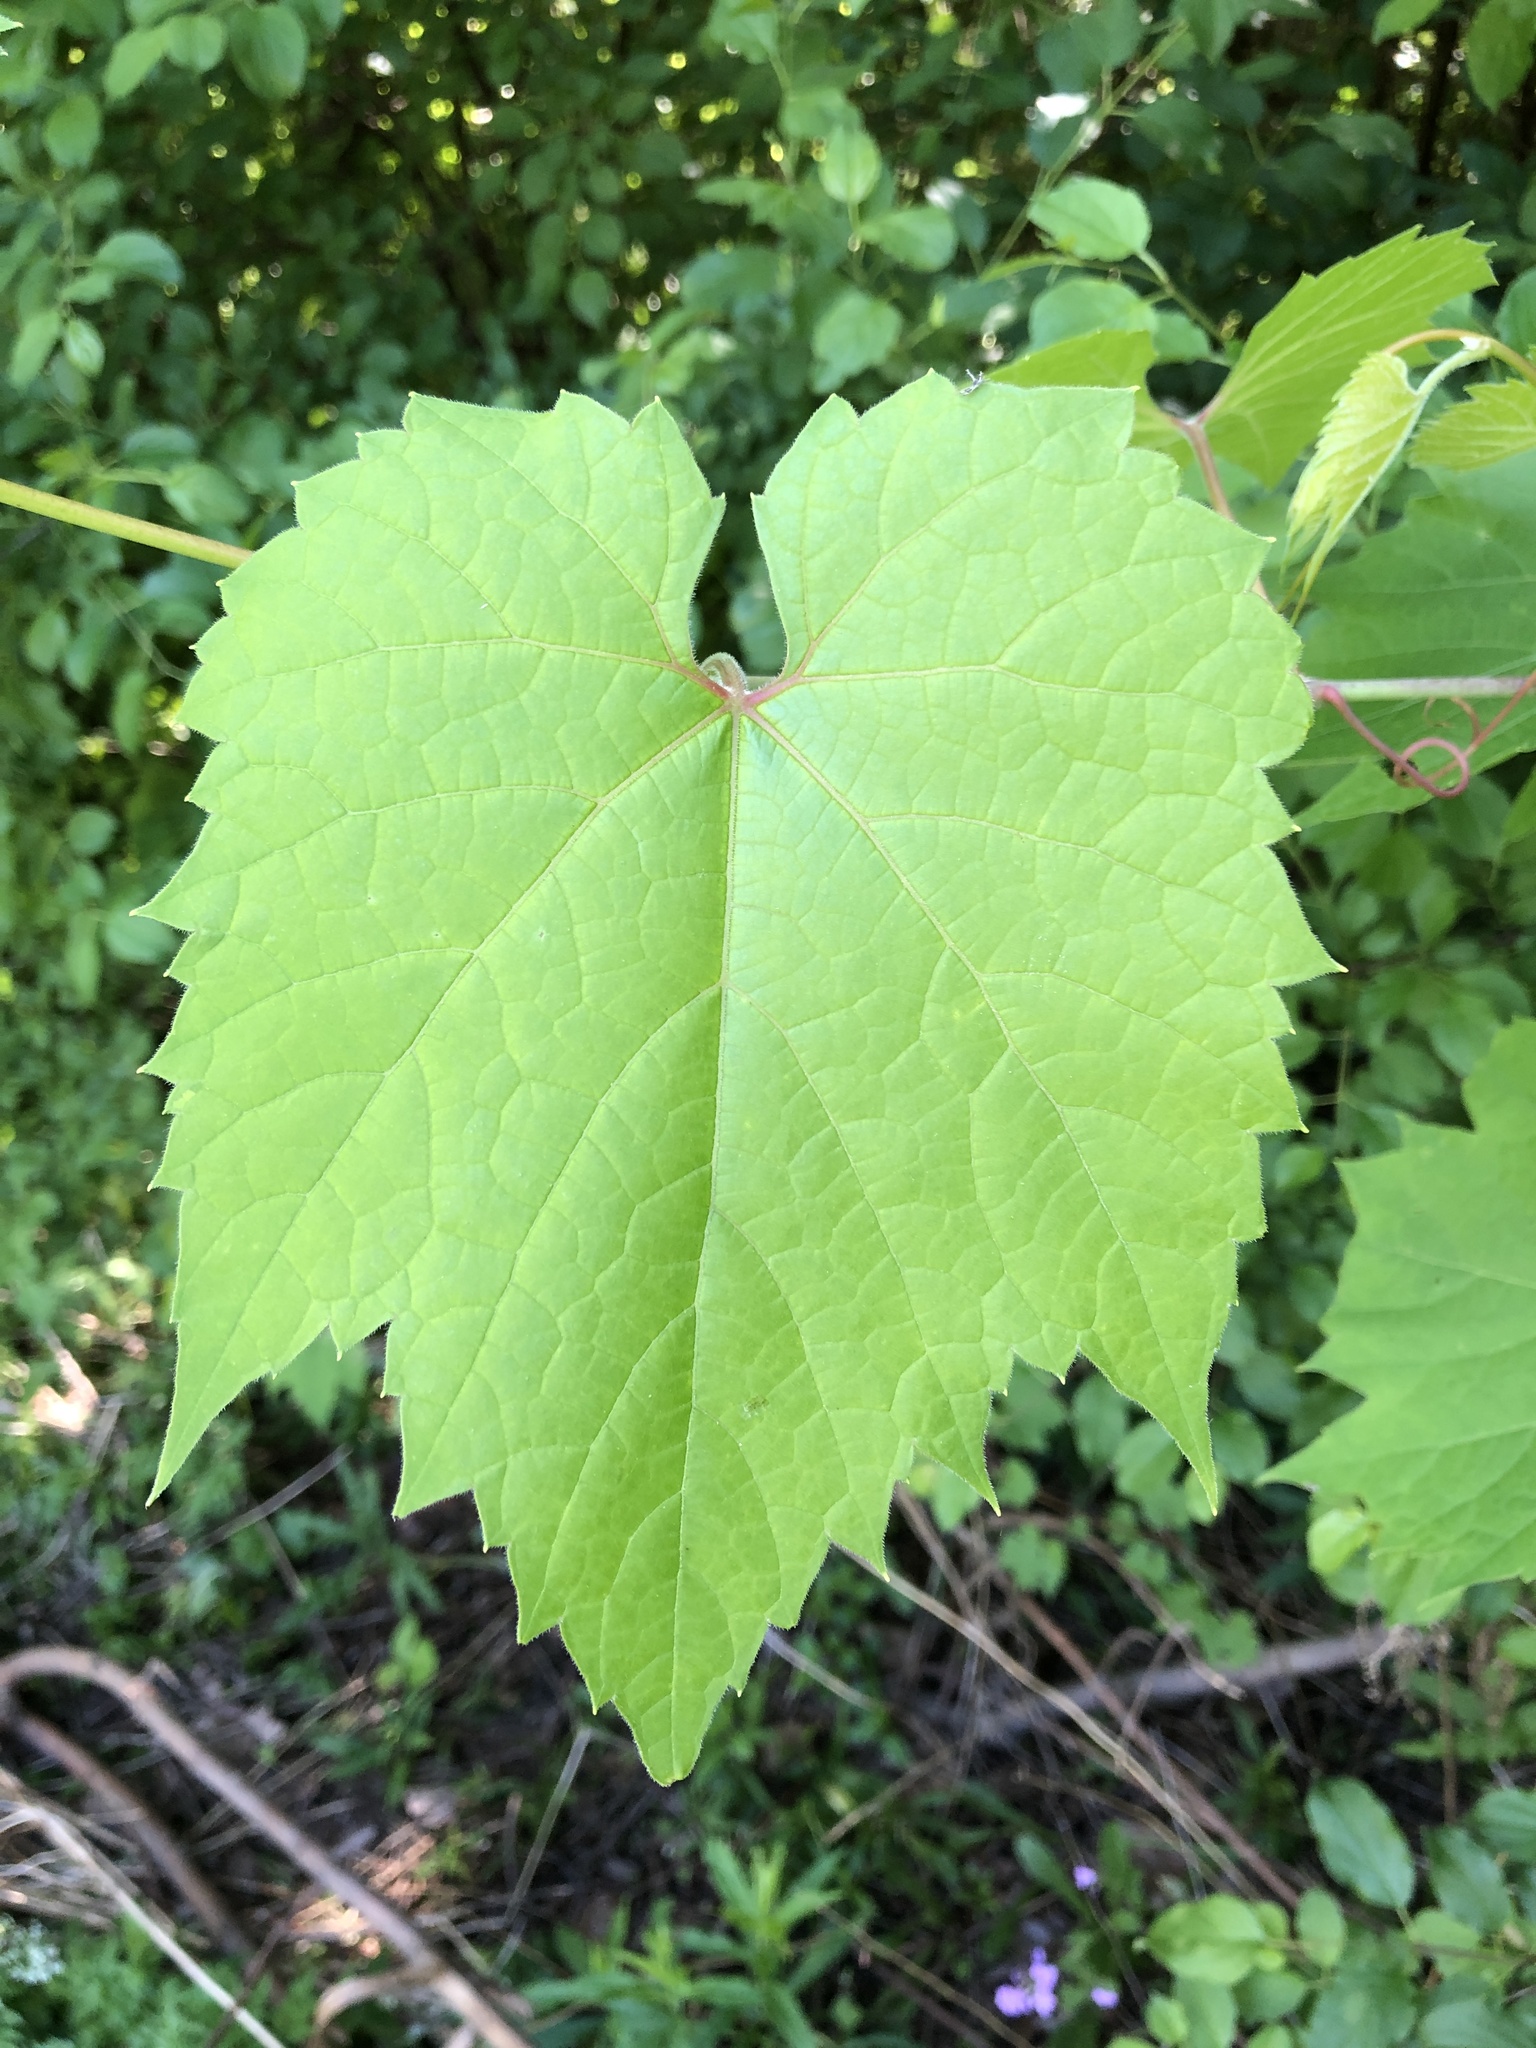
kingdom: Plantae
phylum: Tracheophyta
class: Magnoliopsida
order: Vitales
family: Vitaceae
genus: Vitis
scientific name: Vitis riparia
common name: Frost grape
